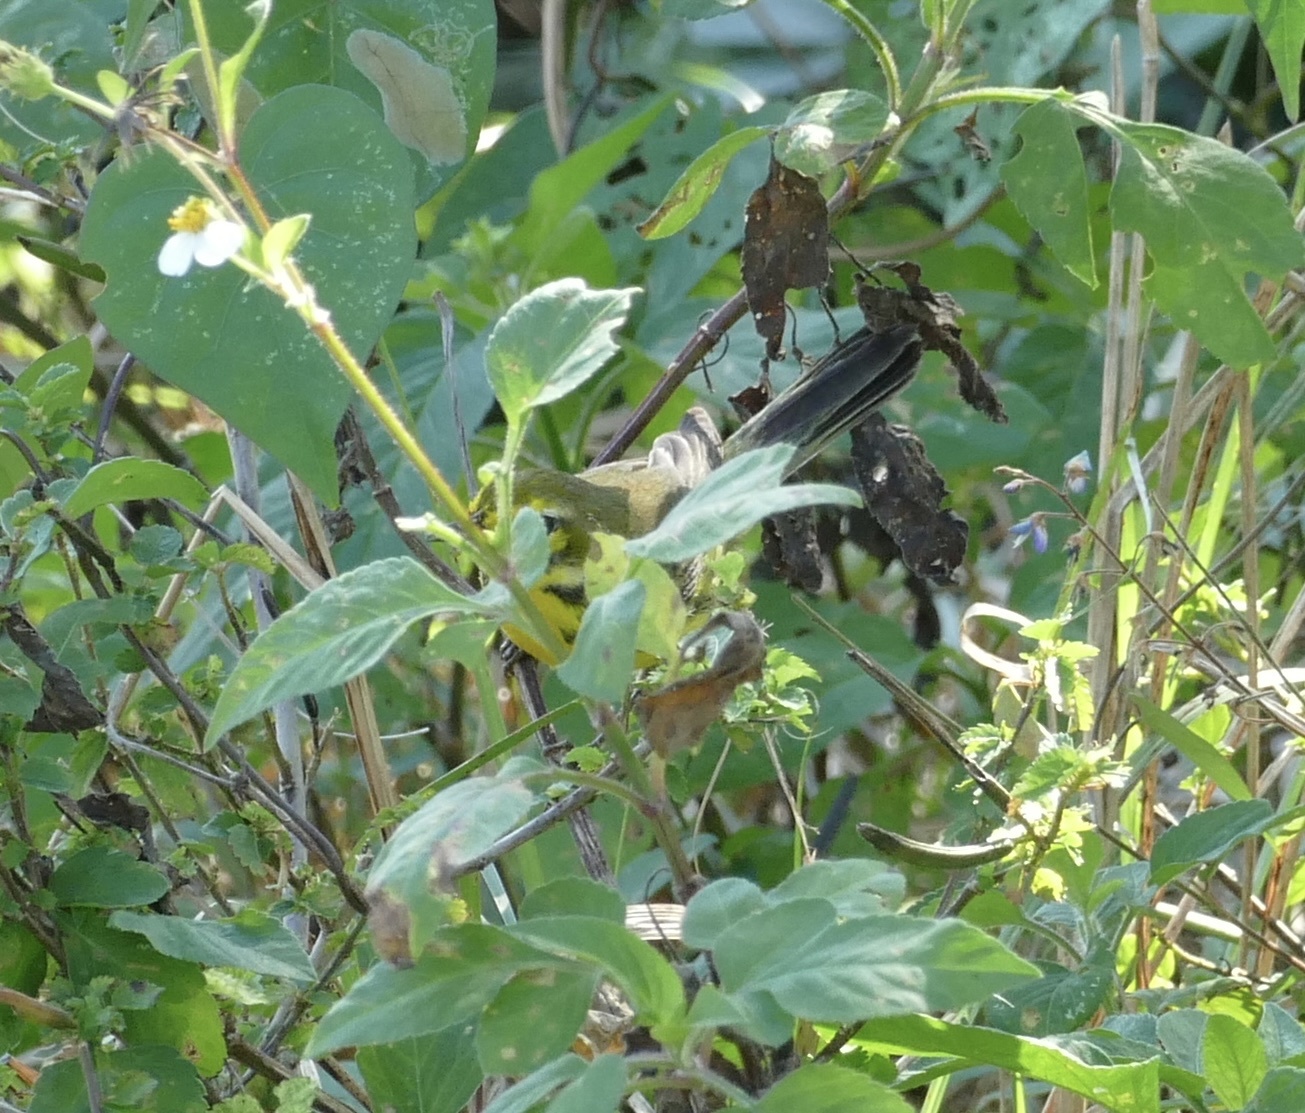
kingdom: Animalia
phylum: Chordata
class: Aves
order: Passeriformes
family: Parulidae
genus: Setophaga
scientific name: Setophaga discolor
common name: Prairie warbler
